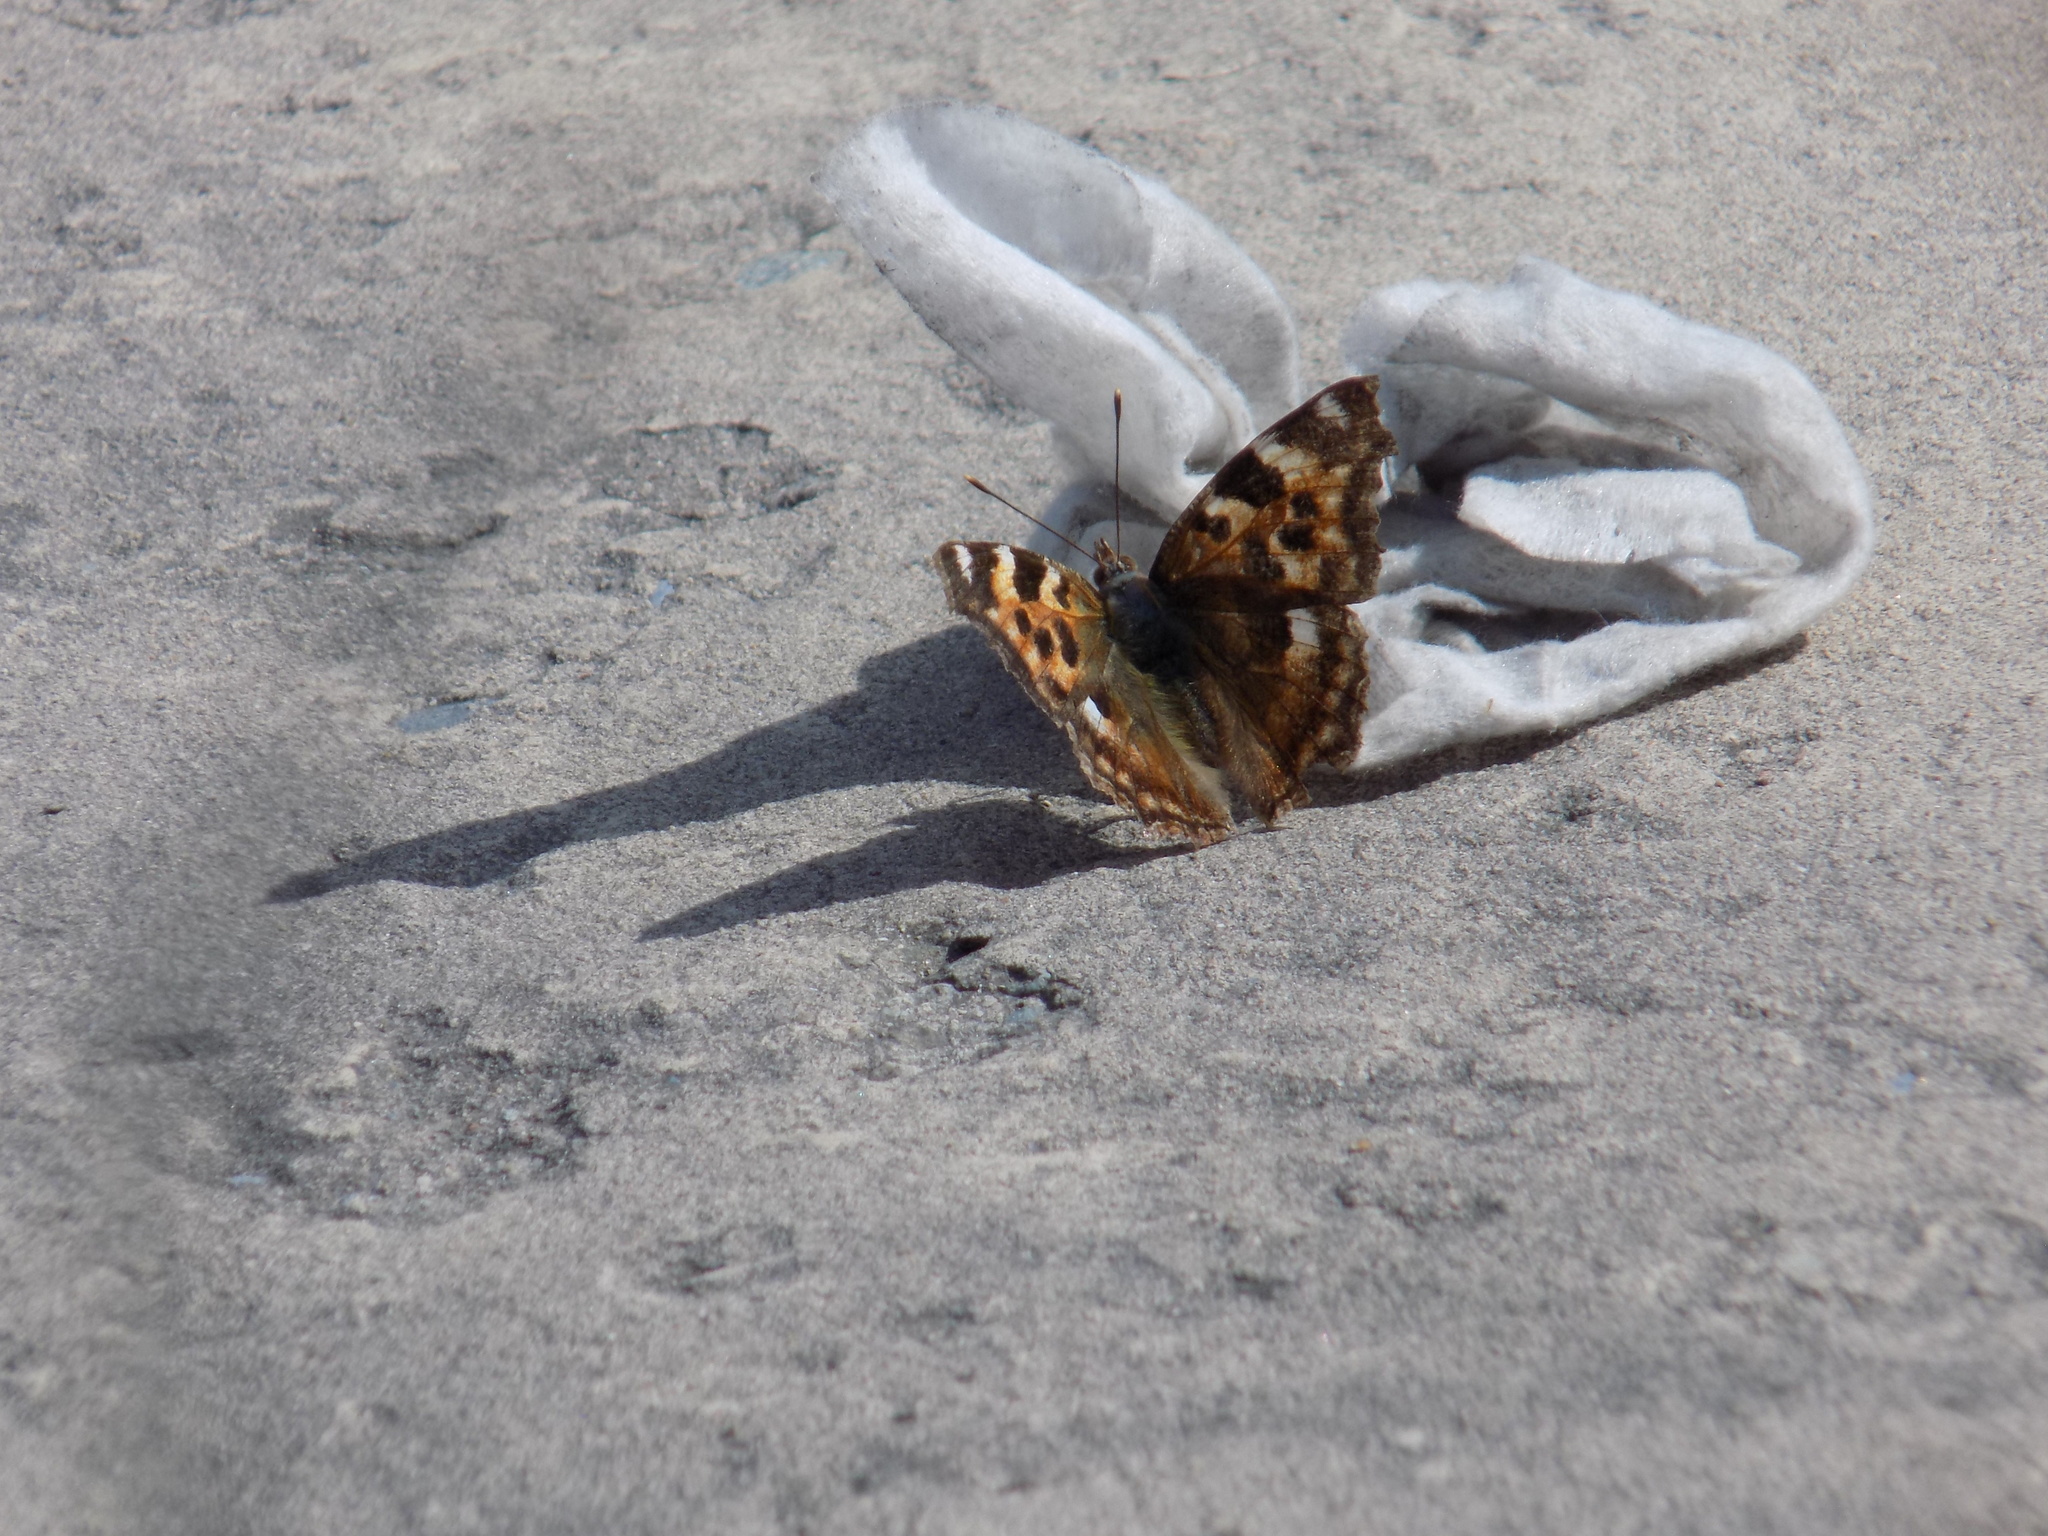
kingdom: Animalia
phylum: Arthropoda
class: Insecta
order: Lepidoptera
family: Nymphalidae
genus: Polygonia
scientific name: Polygonia vaualbum
